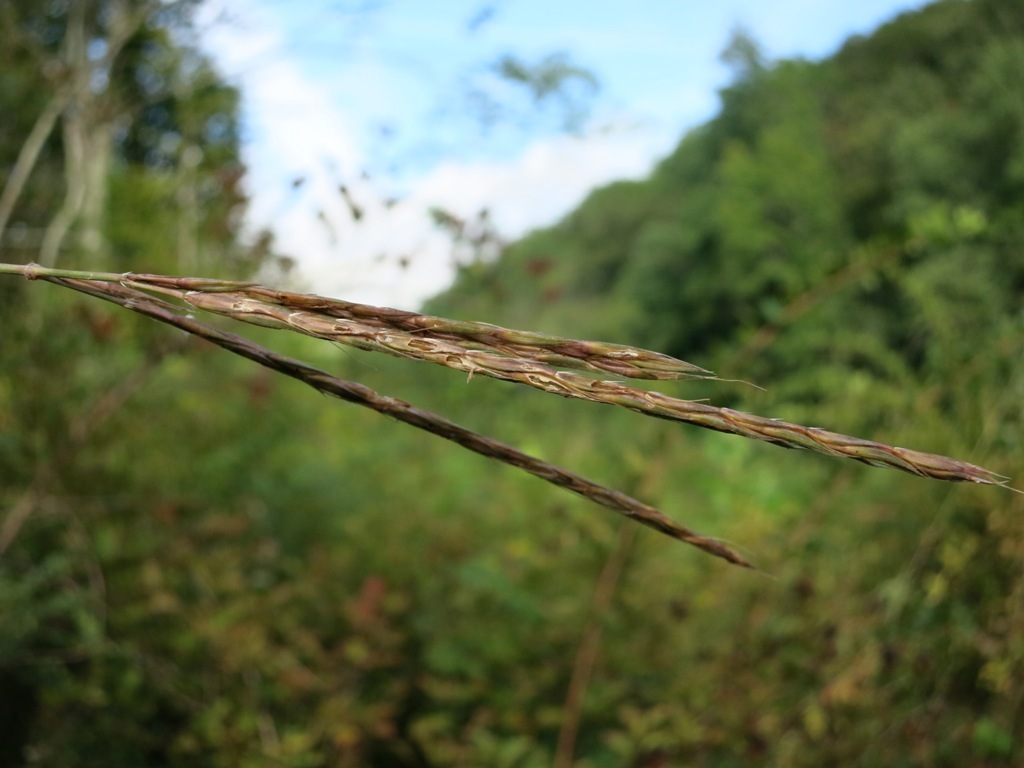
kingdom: Plantae
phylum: Tracheophyta
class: Liliopsida
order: Poales
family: Poaceae
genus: Andropogon
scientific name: Andropogon gerardi
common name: Big bluestem
